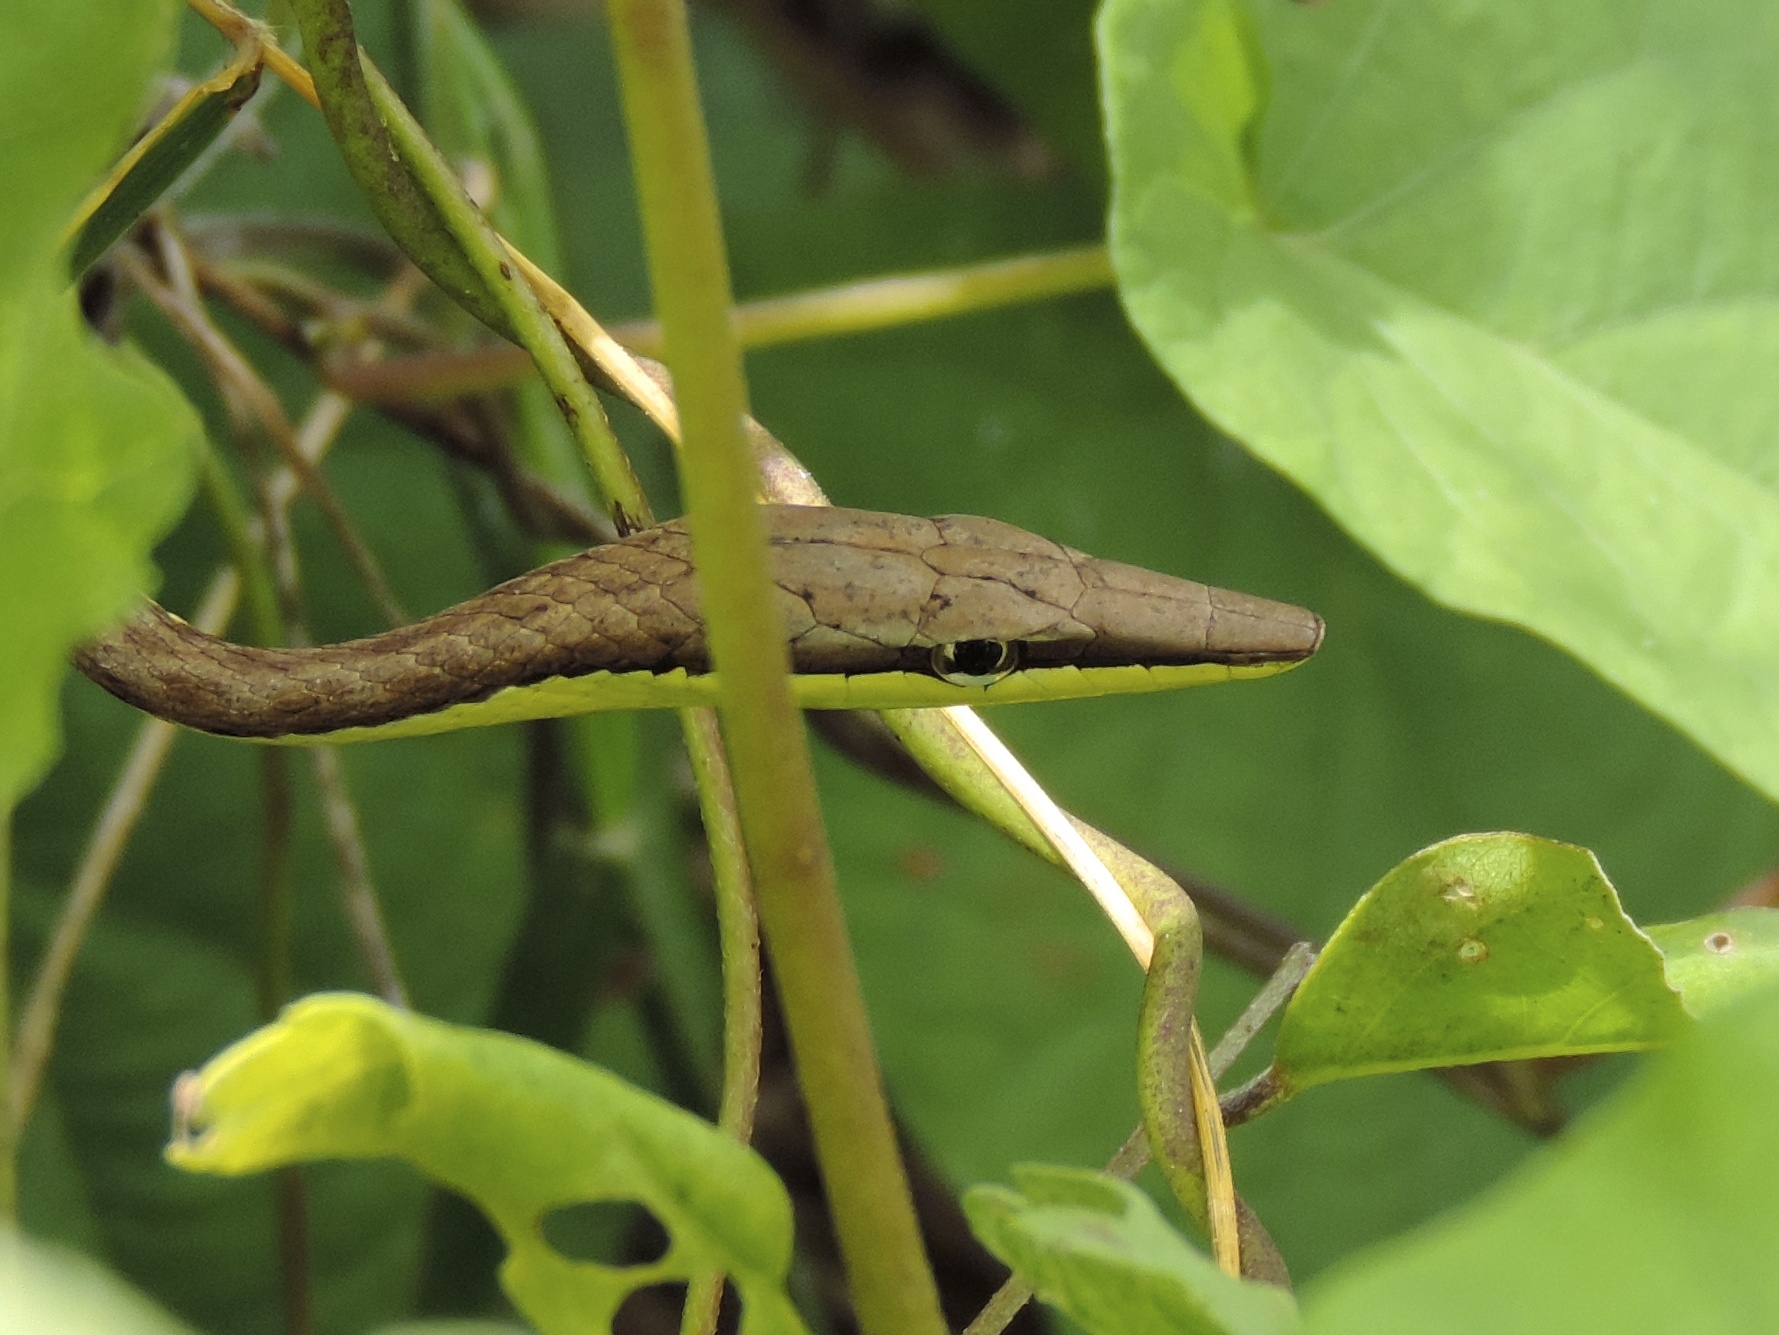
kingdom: Animalia
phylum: Chordata
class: Squamata
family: Colubridae
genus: Oxybelis
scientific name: Oxybelis microphthalmus
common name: Thrornscrub vine snake
